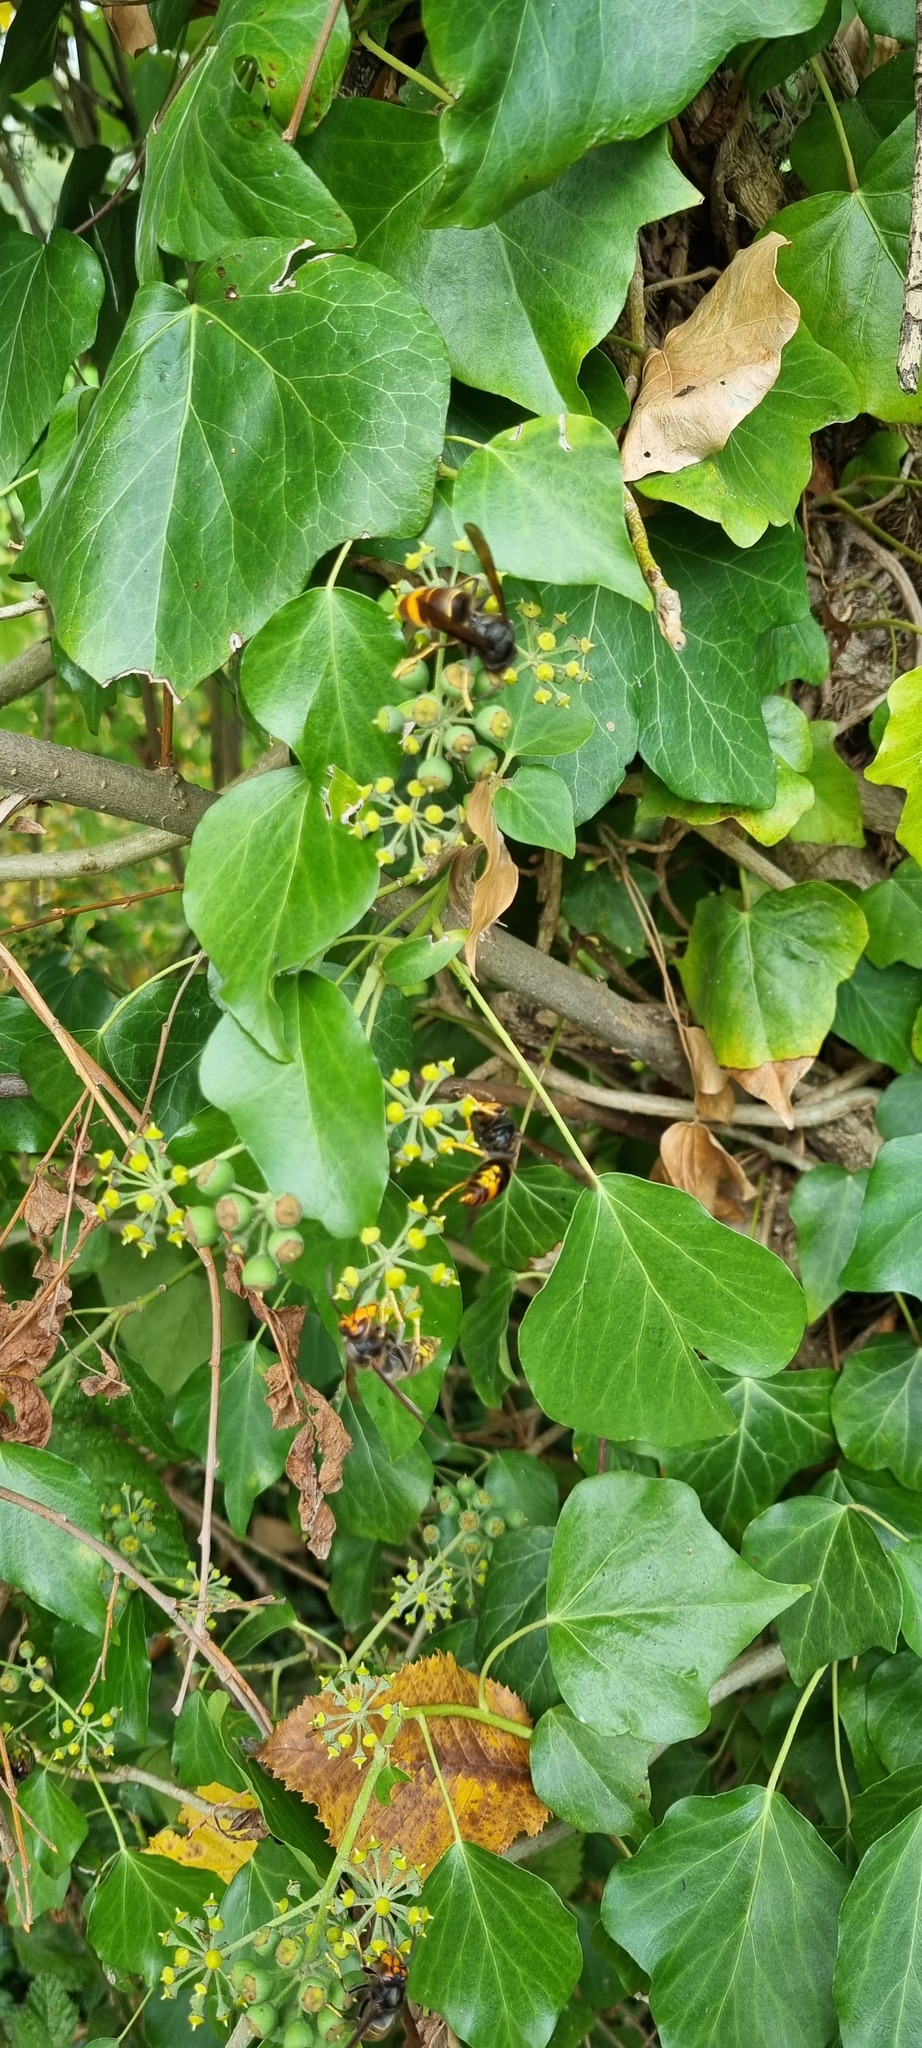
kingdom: Animalia
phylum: Arthropoda
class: Insecta
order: Hymenoptera
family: Vespidae
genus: Vespa
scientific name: Vespa velutina
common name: Asian hornet
